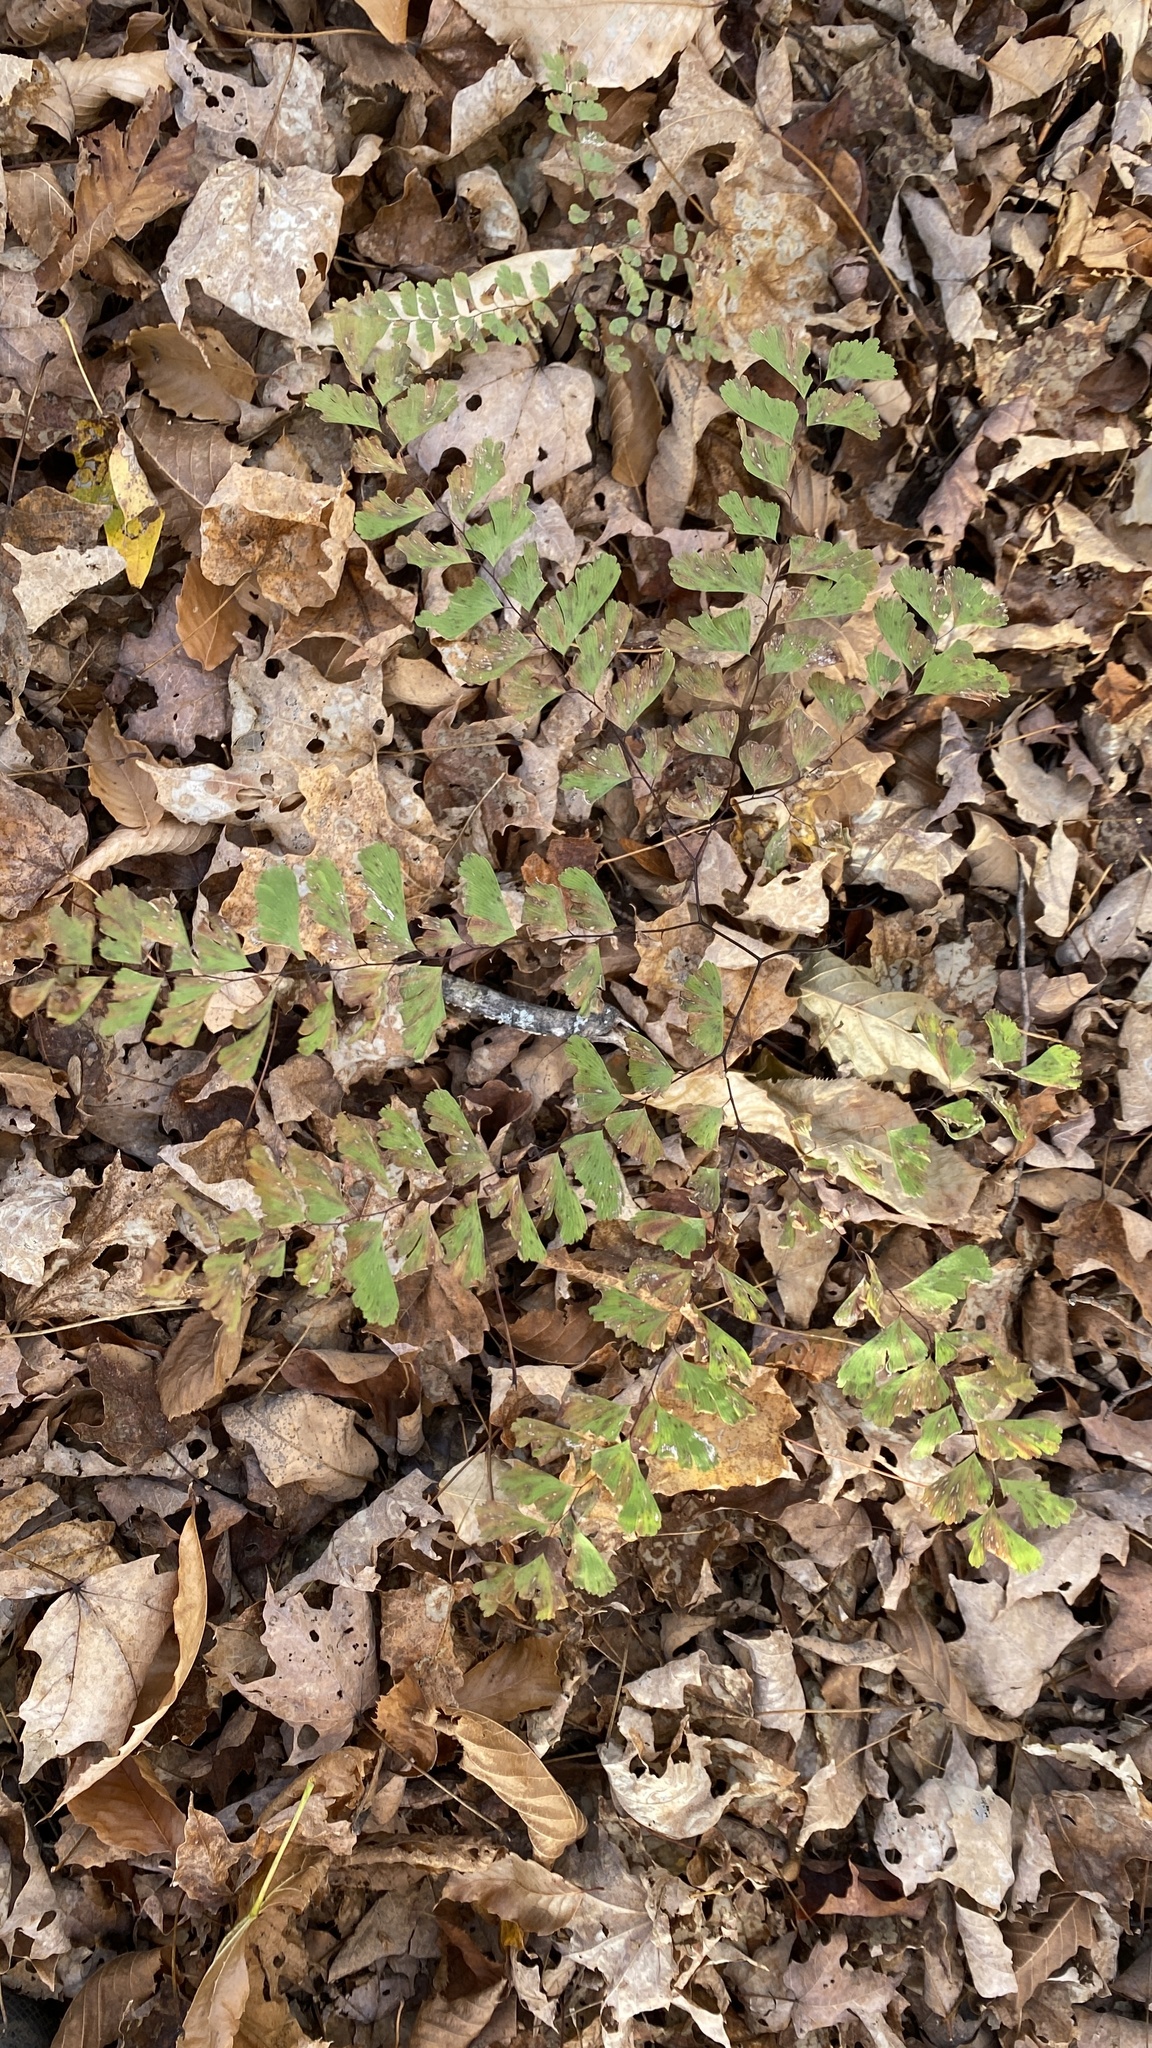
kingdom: Plantae
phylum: Tracheophyta
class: Polypodiopsida
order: Polypodiales
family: Pteridaceae
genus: Adiantum
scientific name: Adiantum pedatum
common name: Five-finger fern
